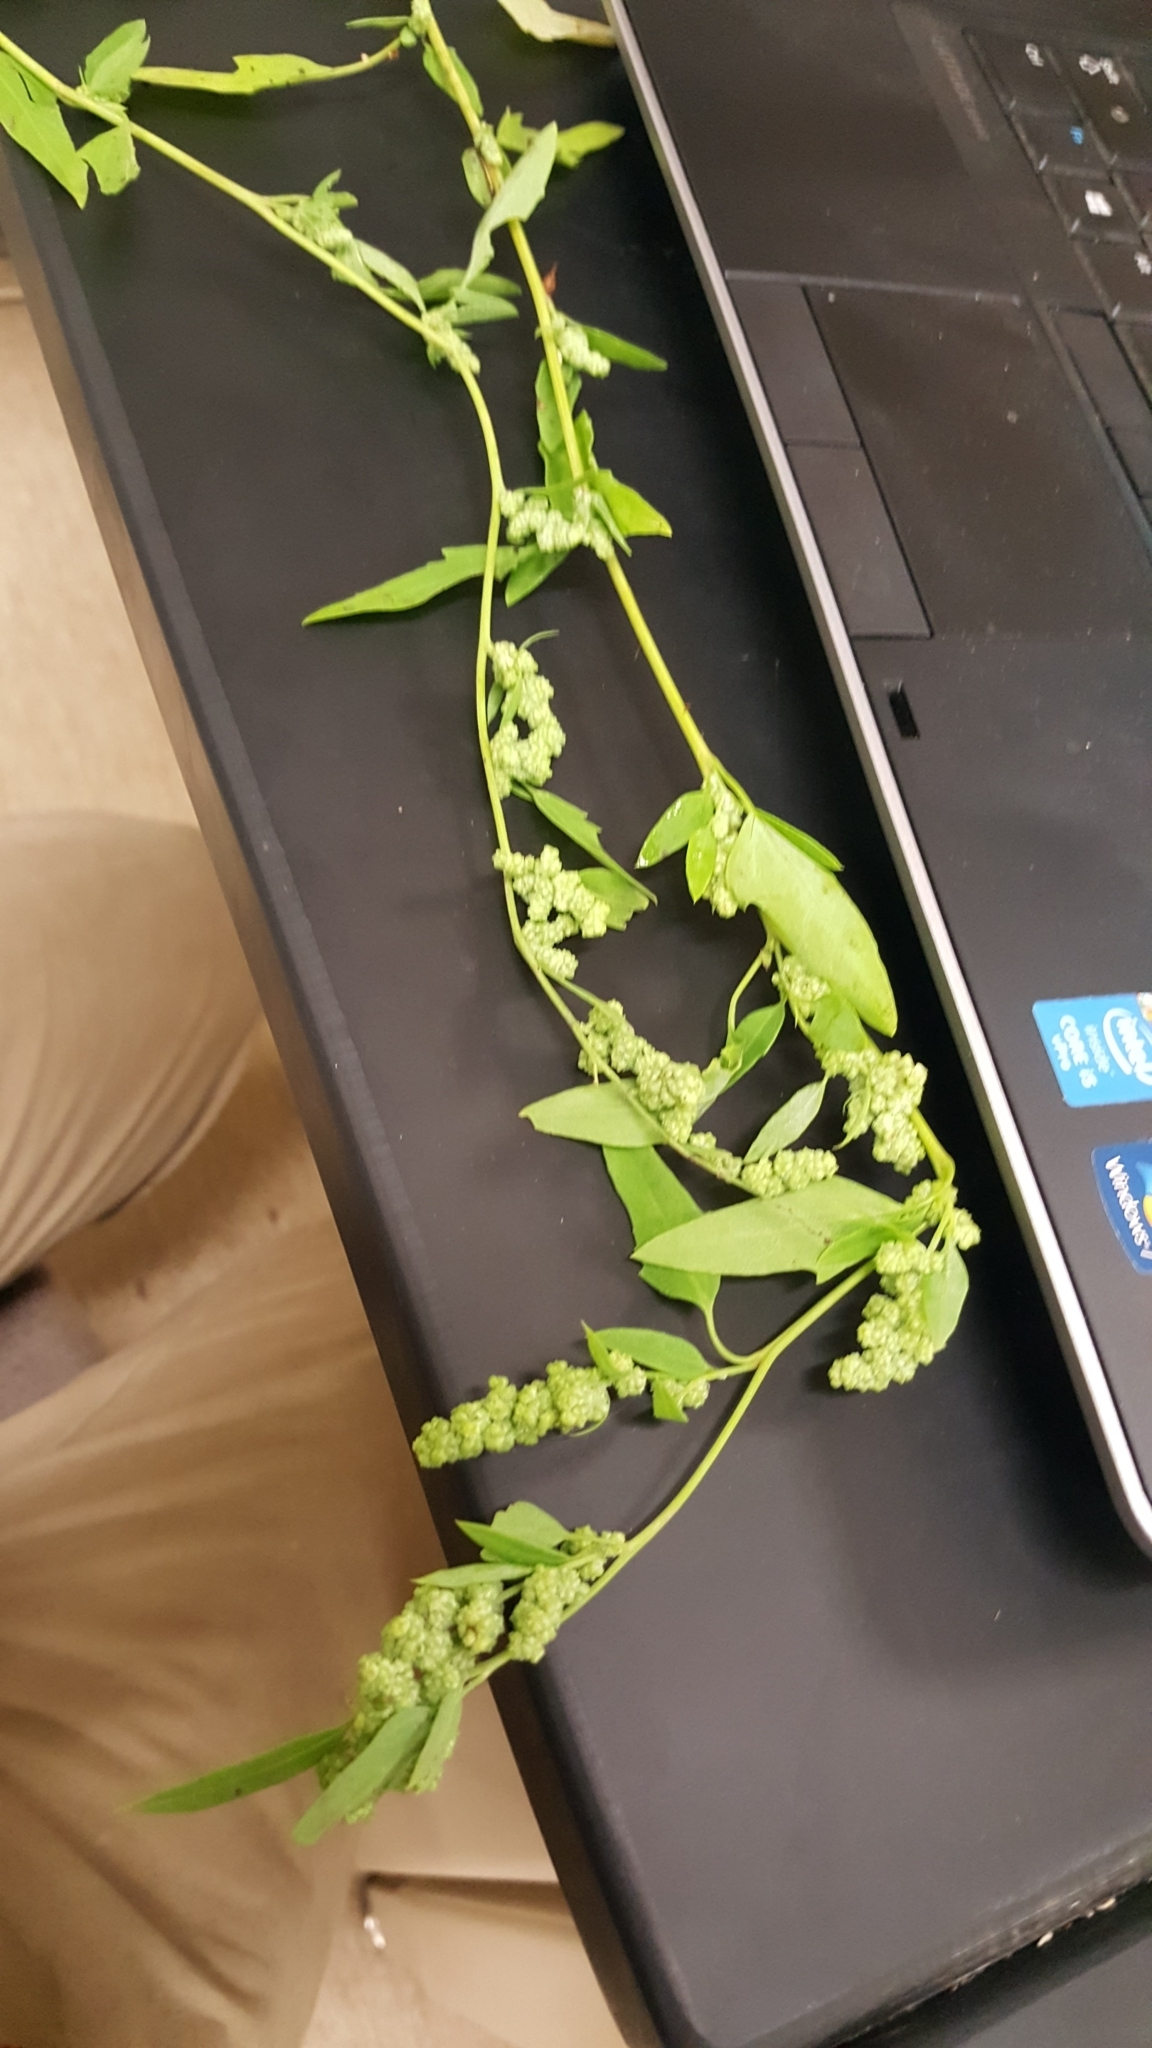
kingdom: Plantae
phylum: Tracheophyta
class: Magnoliopsida
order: Caryophyllales
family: Amaranthaceae
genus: Chenopodium
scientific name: Chenopodium album
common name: Fat-hen
